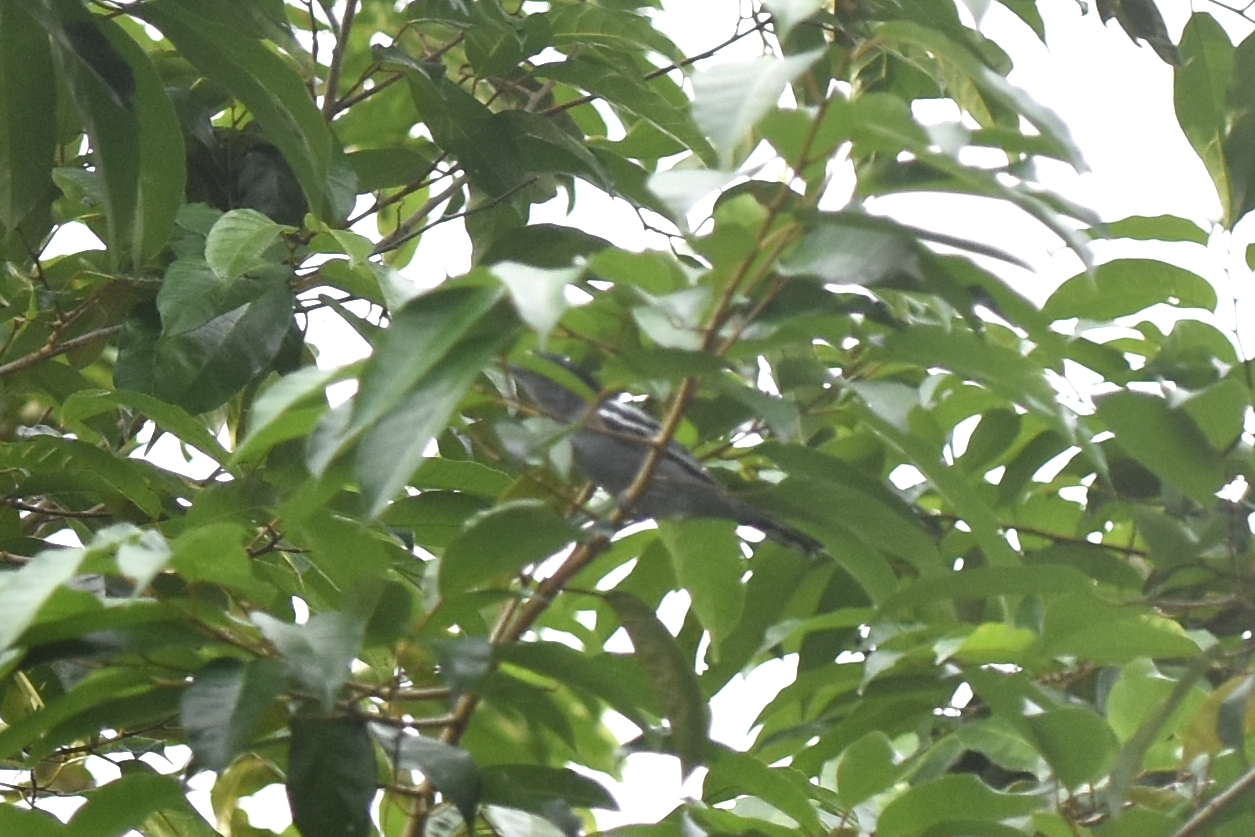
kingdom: Animalia
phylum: Chordata
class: Aves
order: Passeriformes
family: Cotingidae
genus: Pachyramphus
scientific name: Pachyramphus polychopterus
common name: White-winged becard
